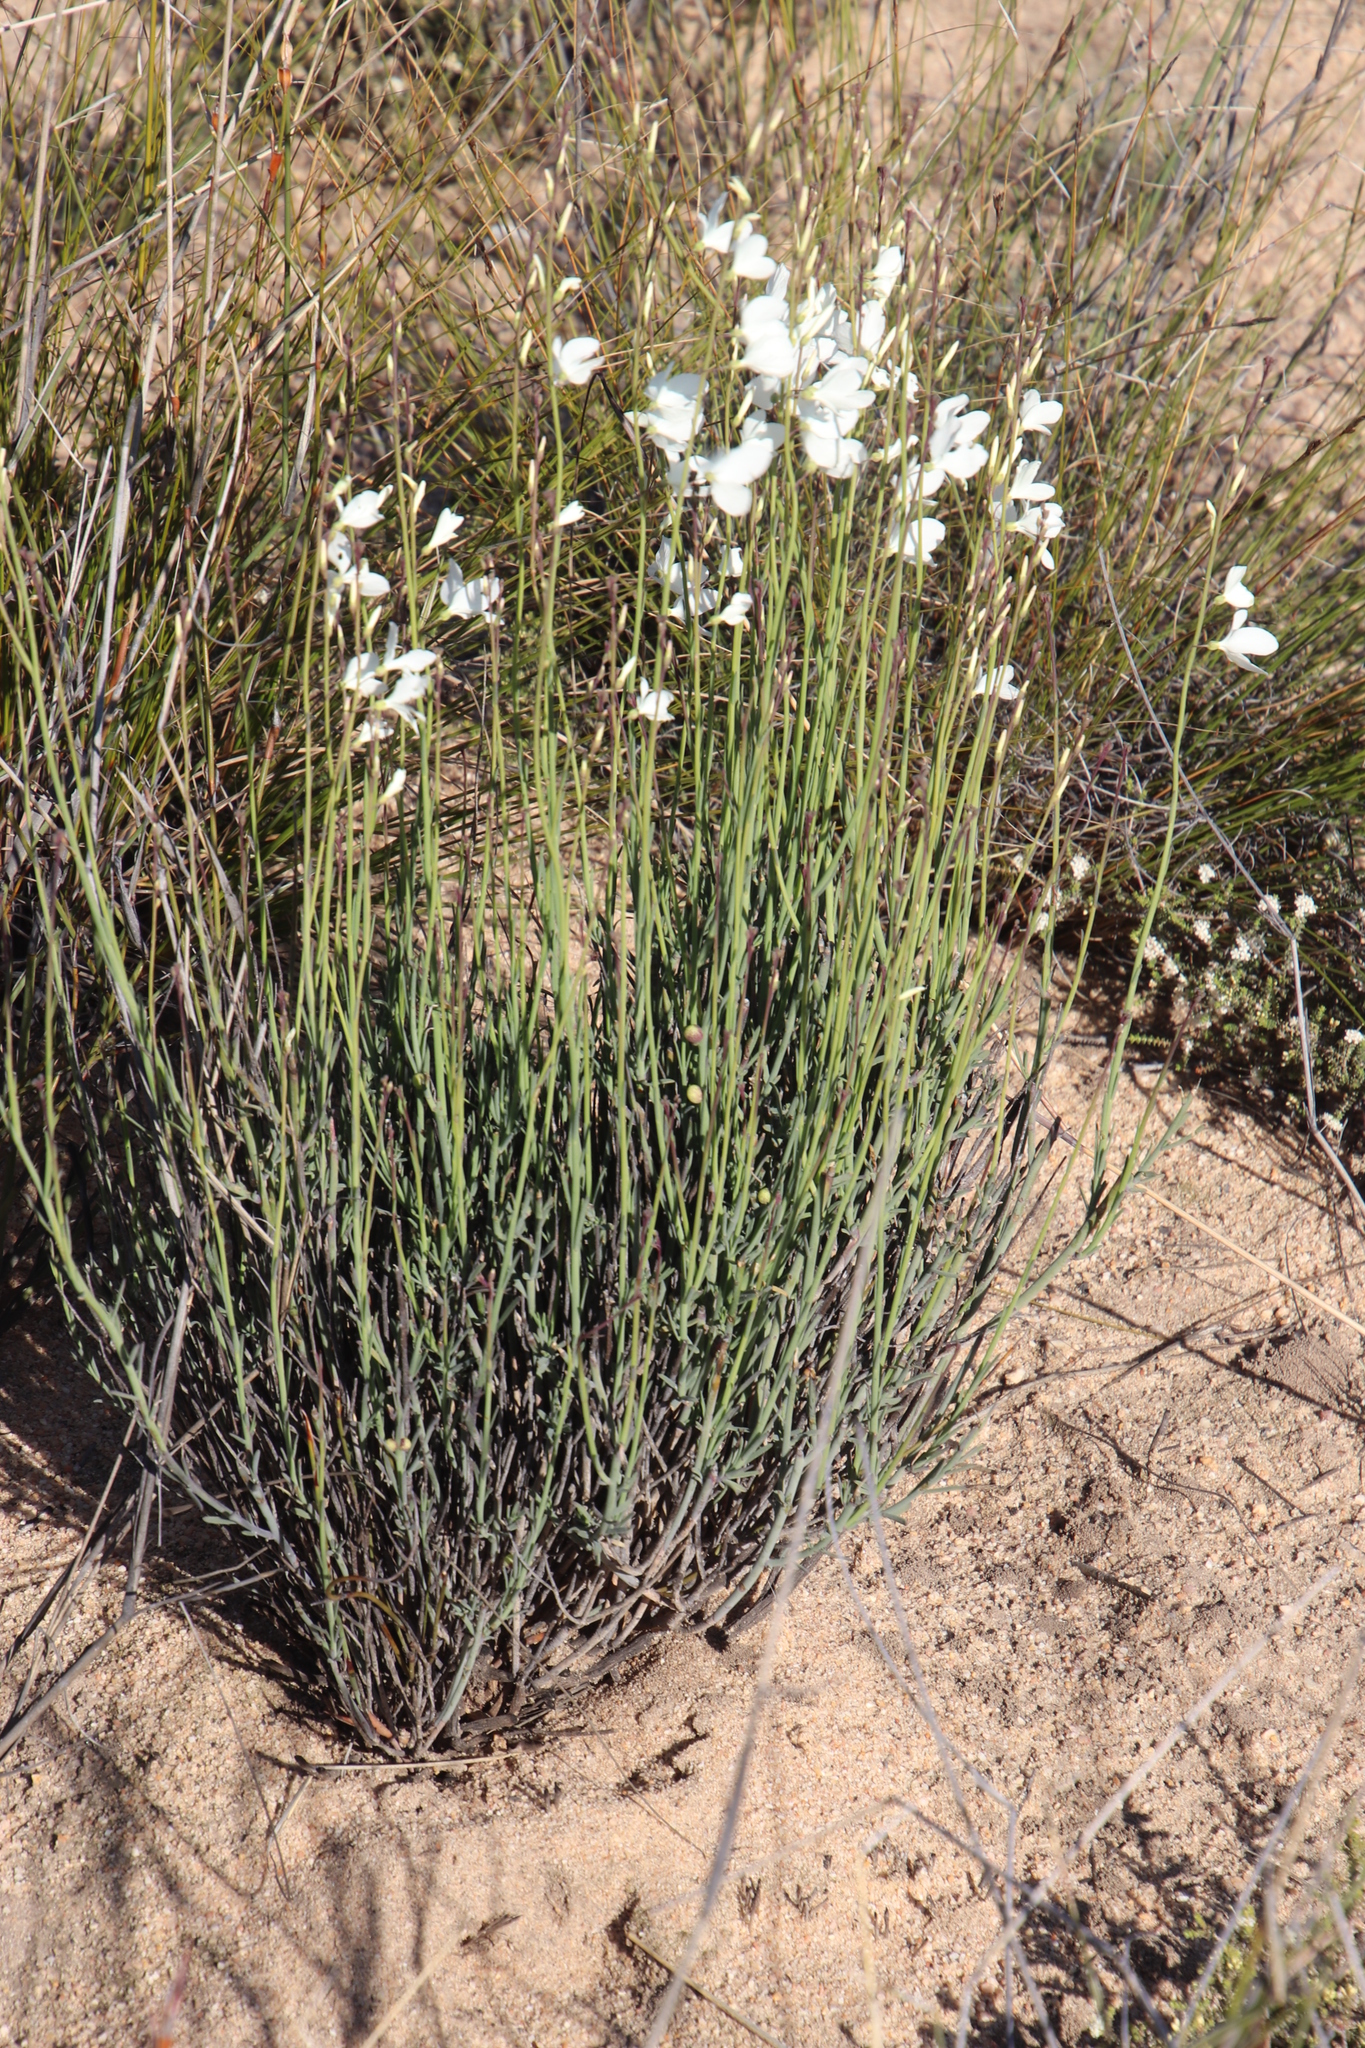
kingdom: Plantae
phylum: Tracheophyta
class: Magnoliopsida
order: Brassicales
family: Brassicaceae
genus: Heliophila
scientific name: Heliophila juncea
